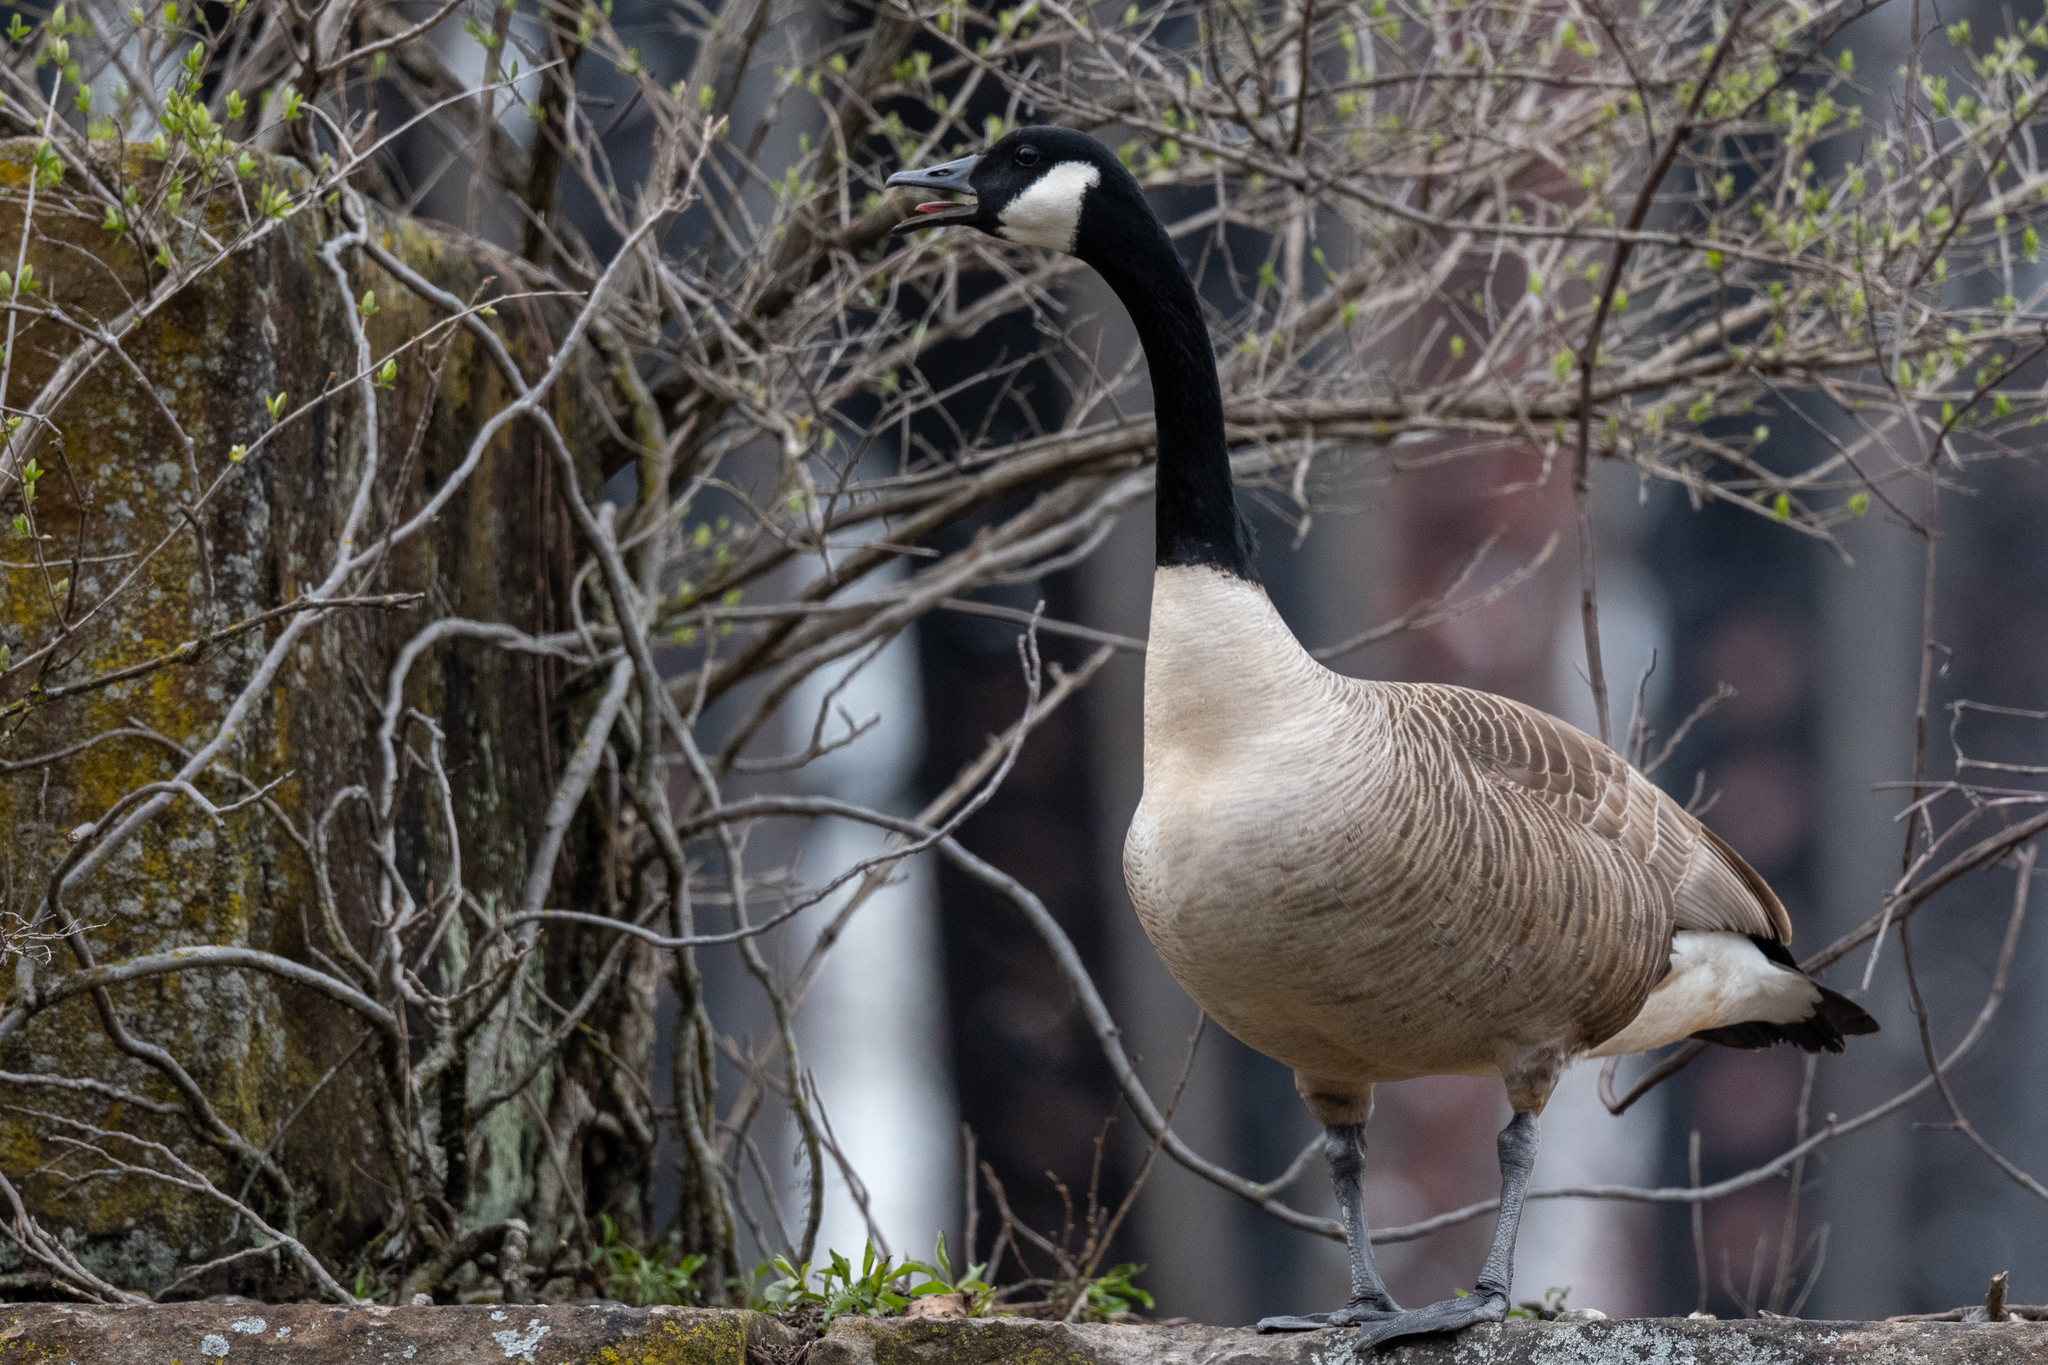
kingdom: Animalia
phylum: Chordata
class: Aves
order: Anseriformes
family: Anatidae
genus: Branta
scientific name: Branta canadensis
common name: Canada goose
